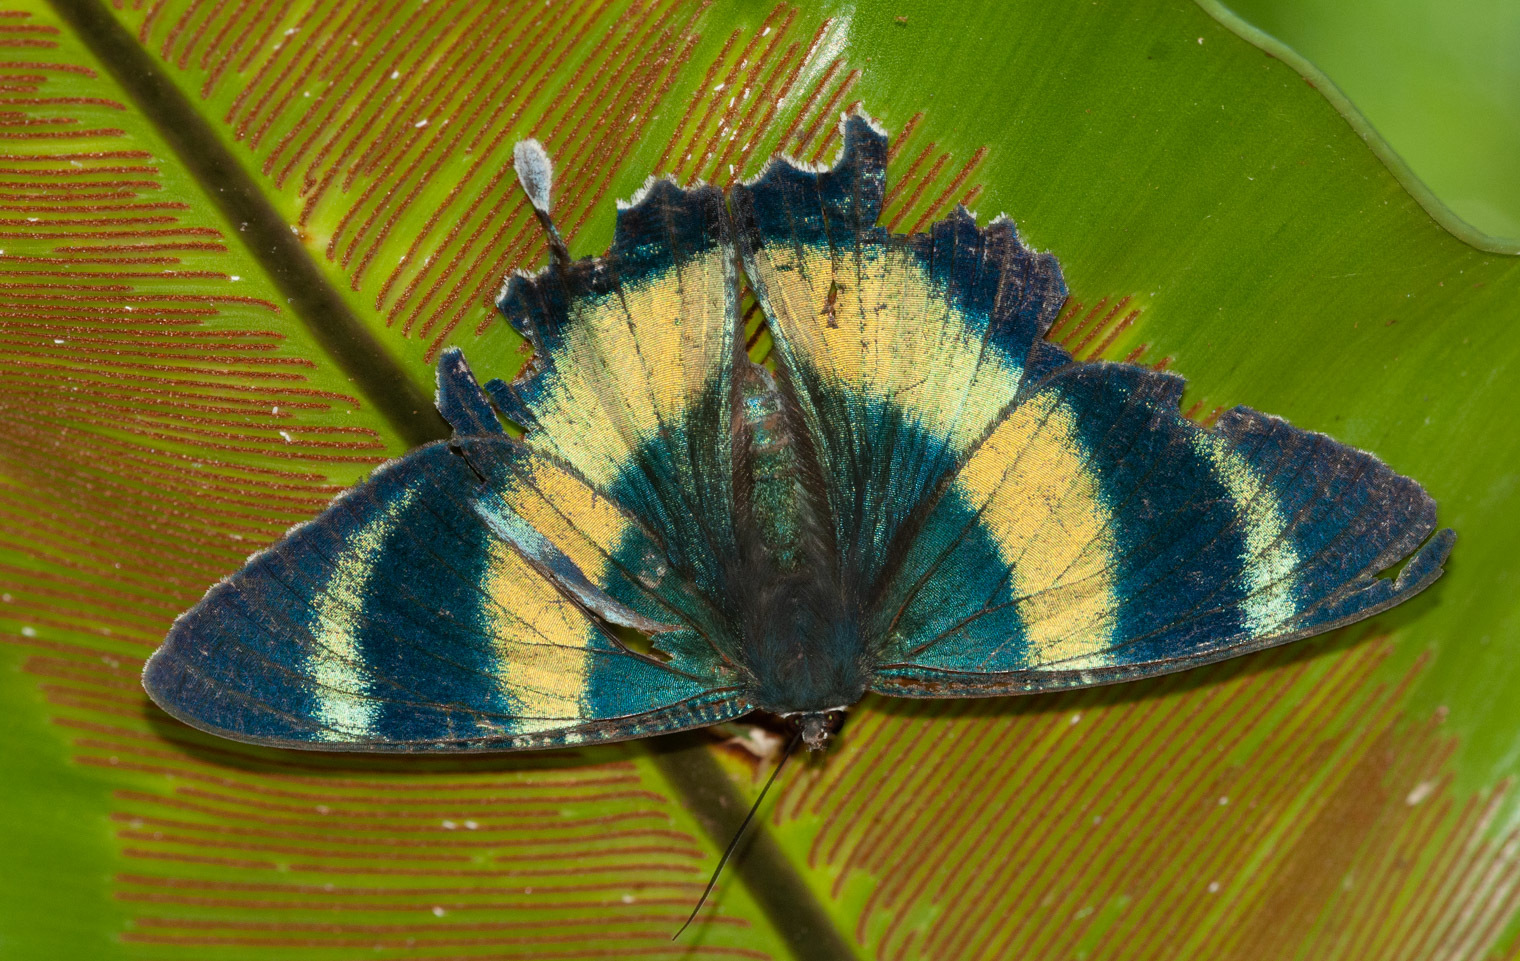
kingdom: Animalia
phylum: Arthropoda
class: Insecta
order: Lepidoptera
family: Uraniidae
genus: Alcides
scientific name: Alcides metaurus
